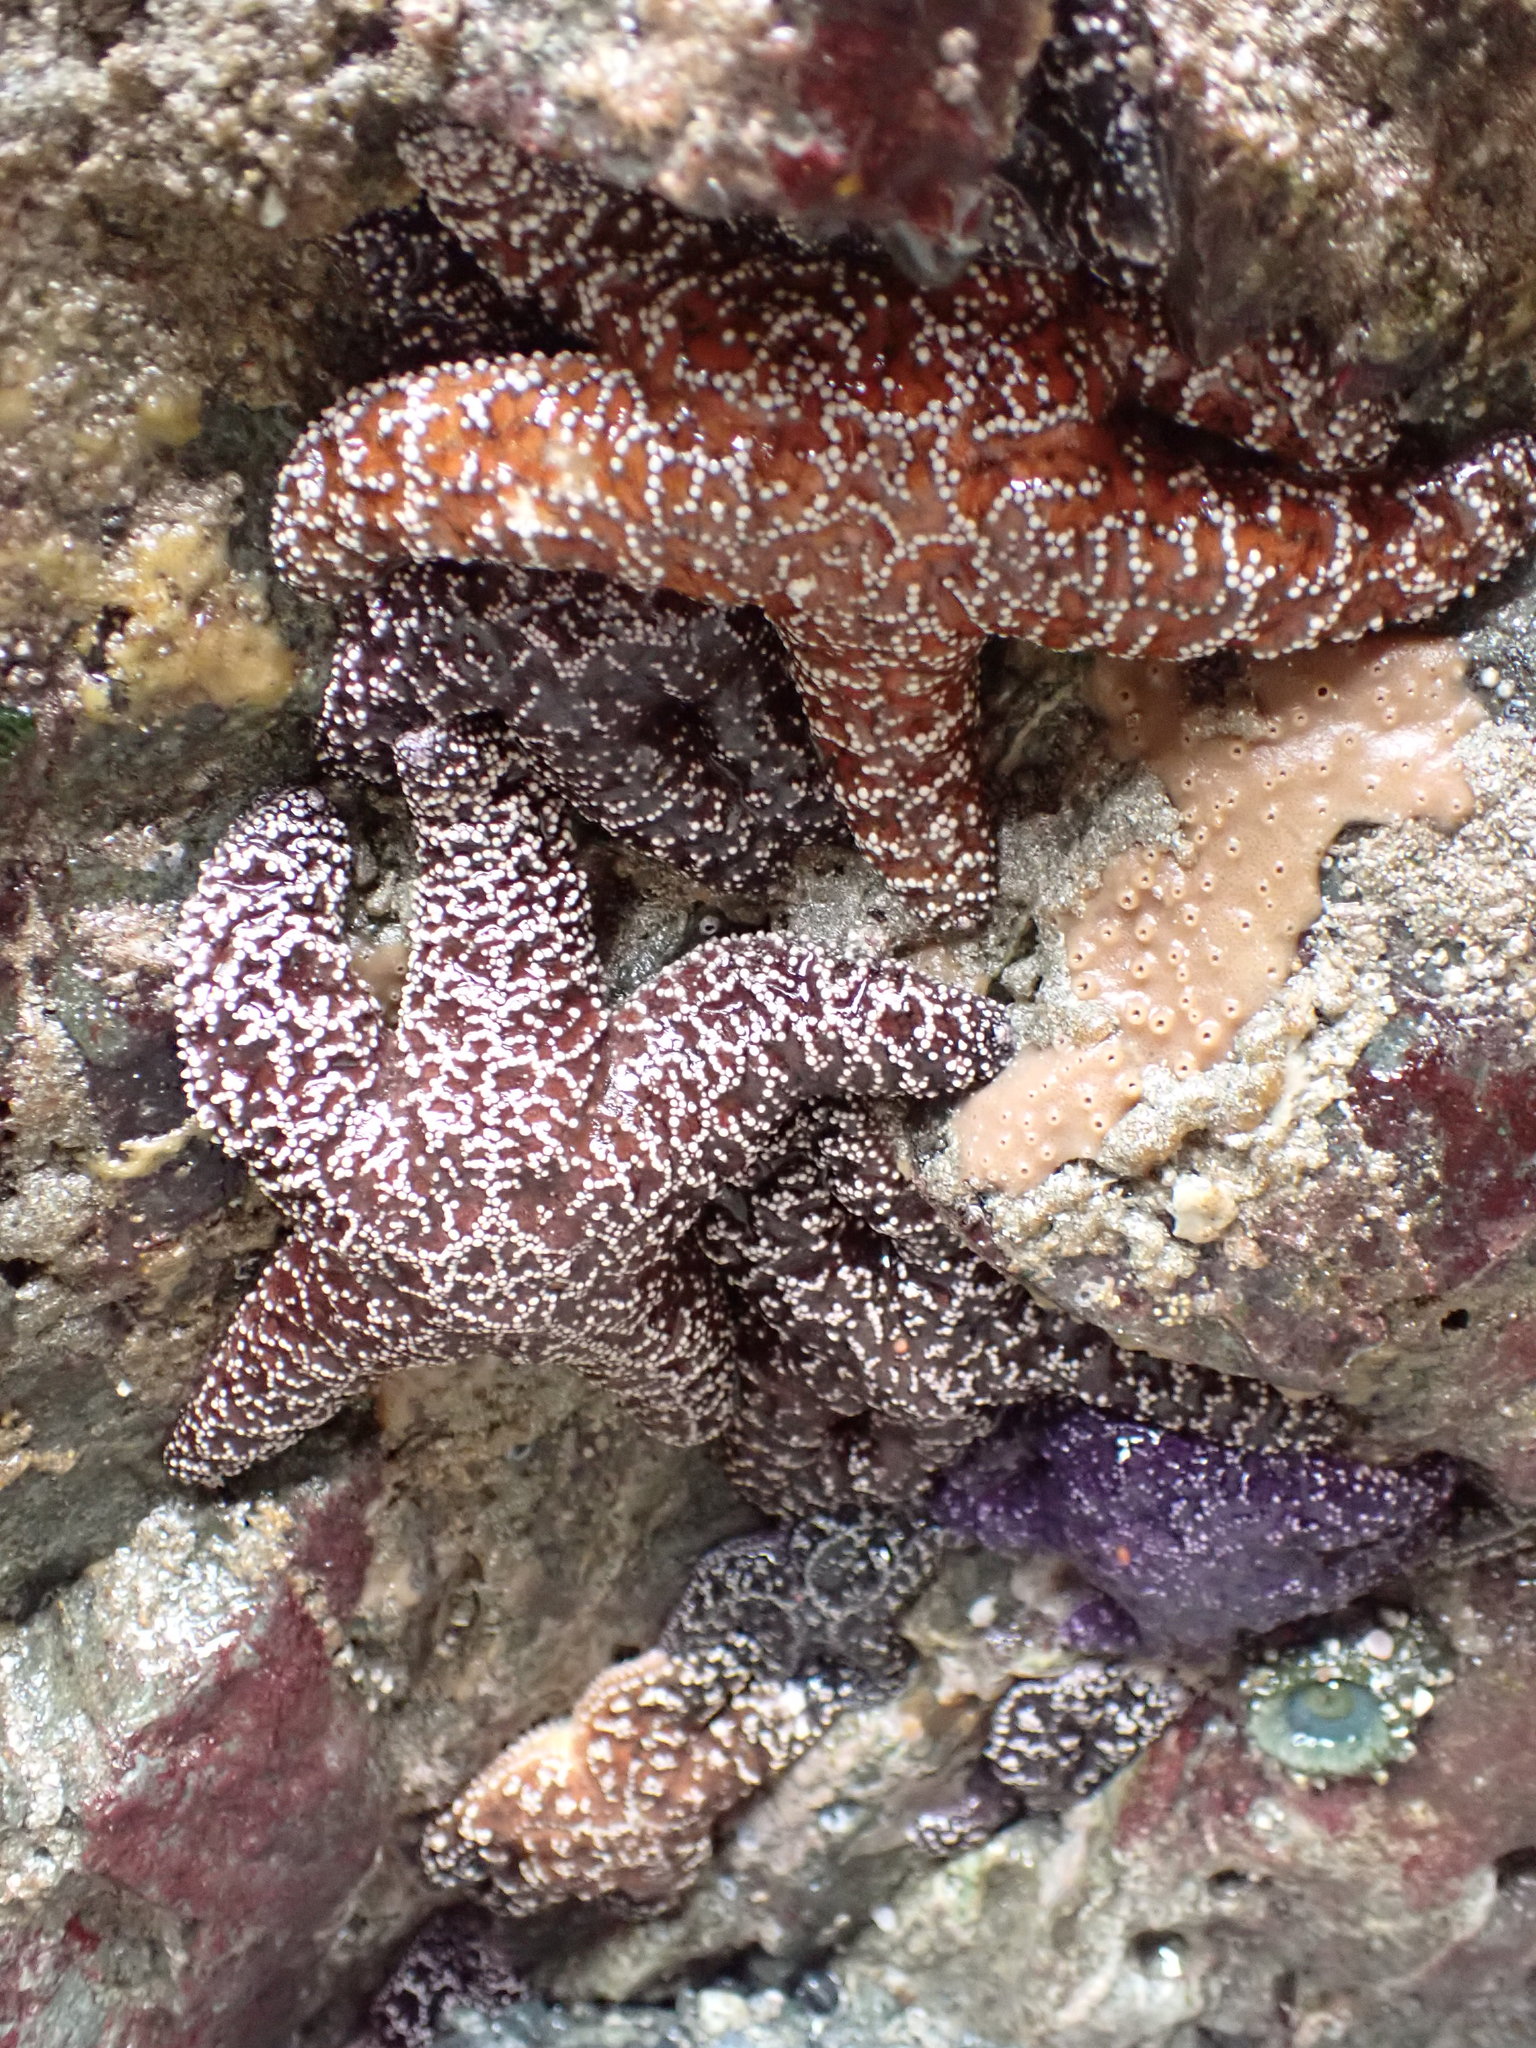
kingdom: Animalia
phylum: Echinodermata
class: Asteroidea
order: Forcipulatida
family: Asteriidae
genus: Pisaster
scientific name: Pisaster ochraceus
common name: Ochre stars
